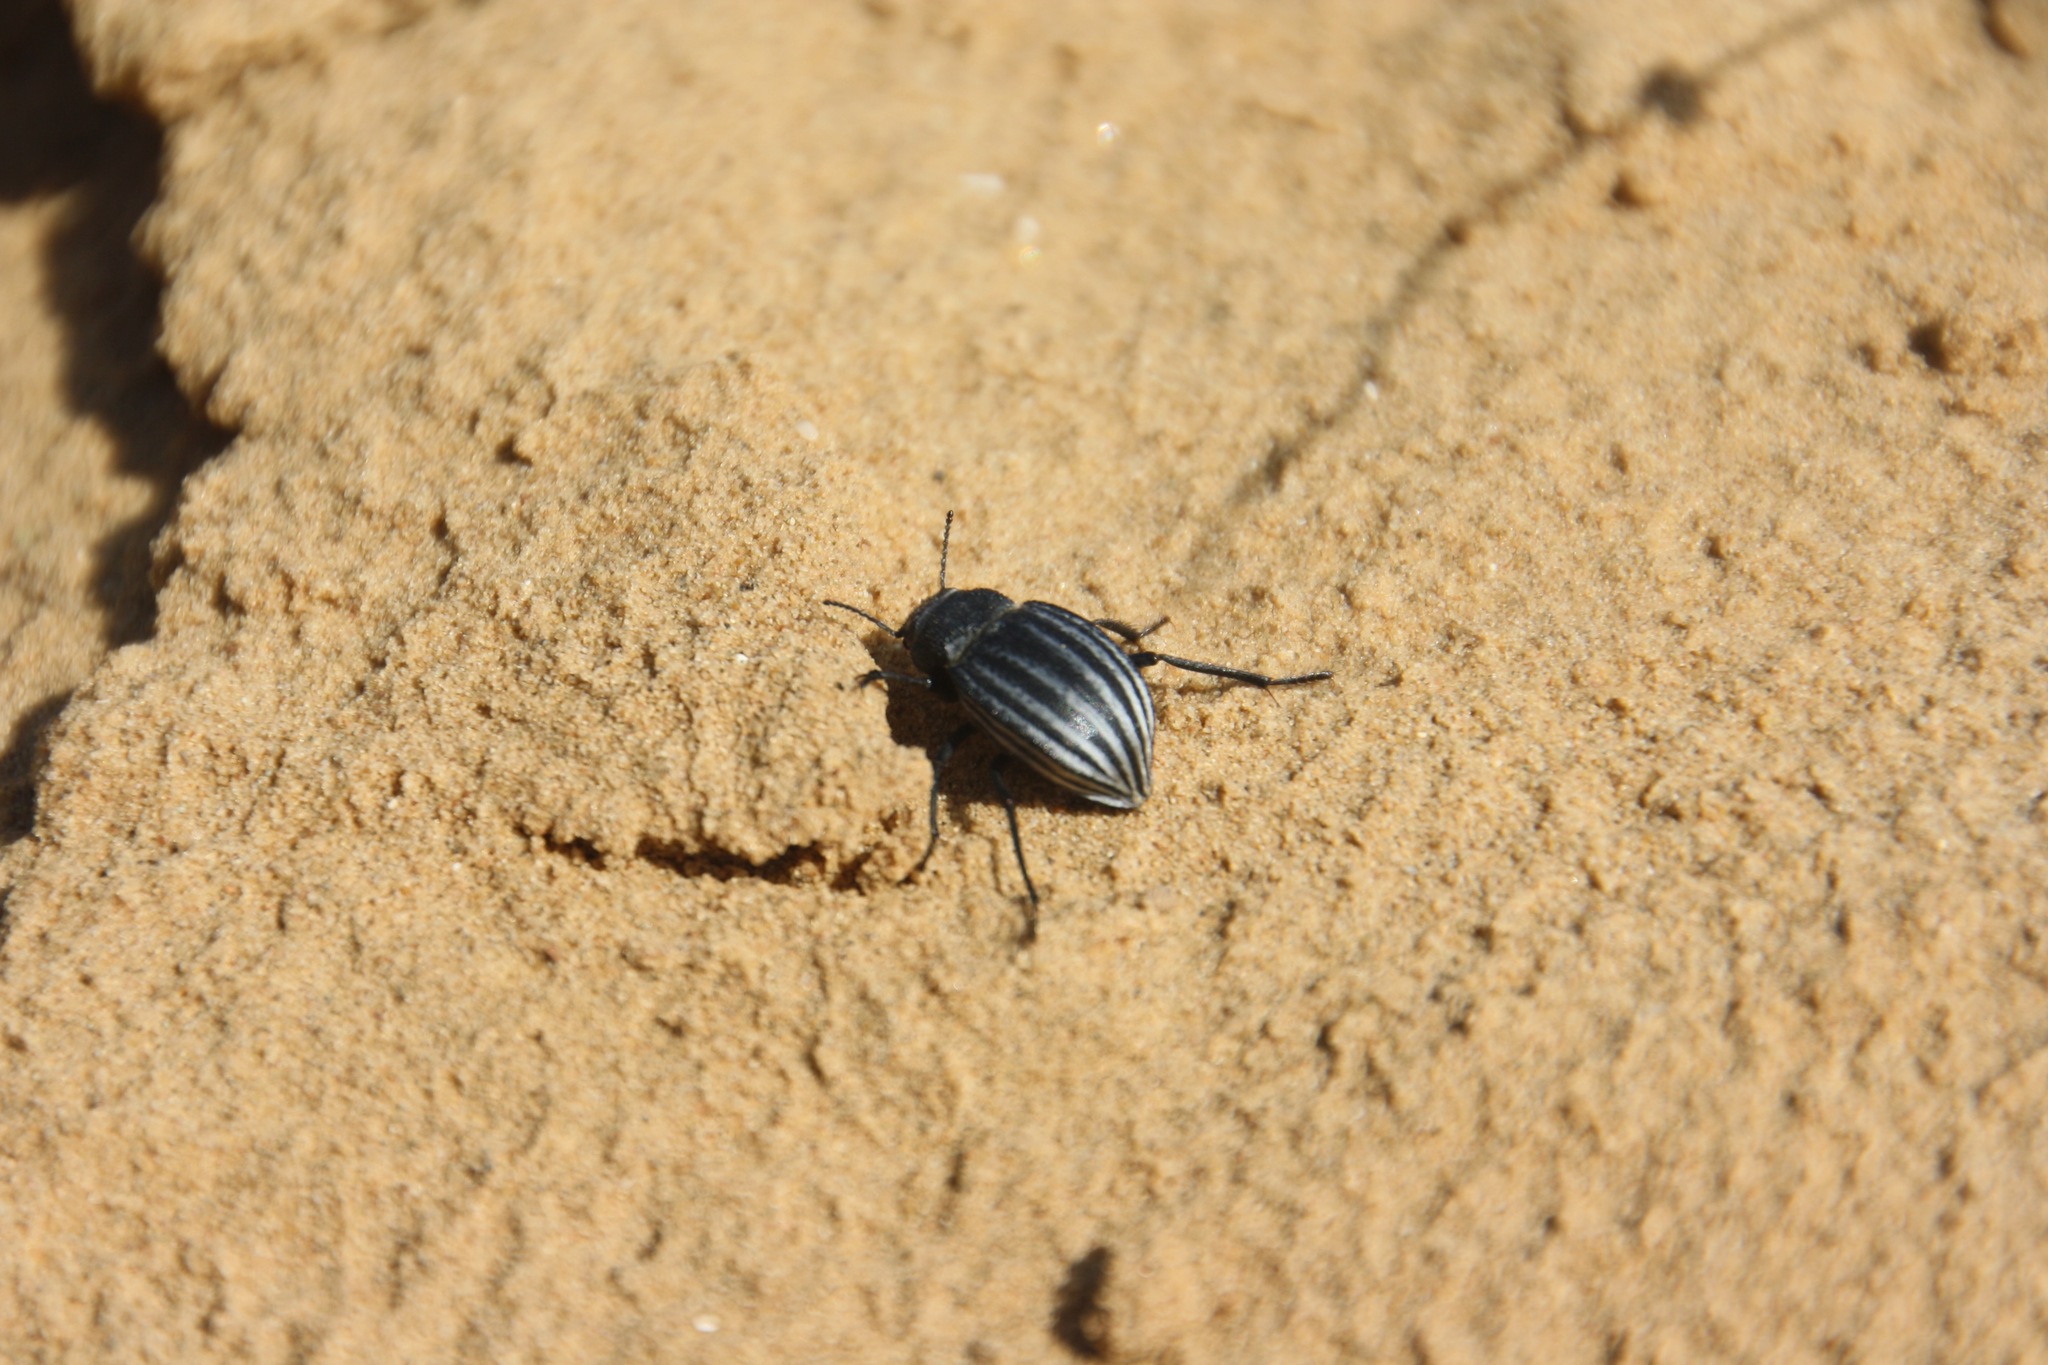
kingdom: Animalia
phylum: Arthropoda
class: Insecta
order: Coleoptera
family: Tenebrionidae
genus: Platyope
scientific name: Platyope leucogramma
